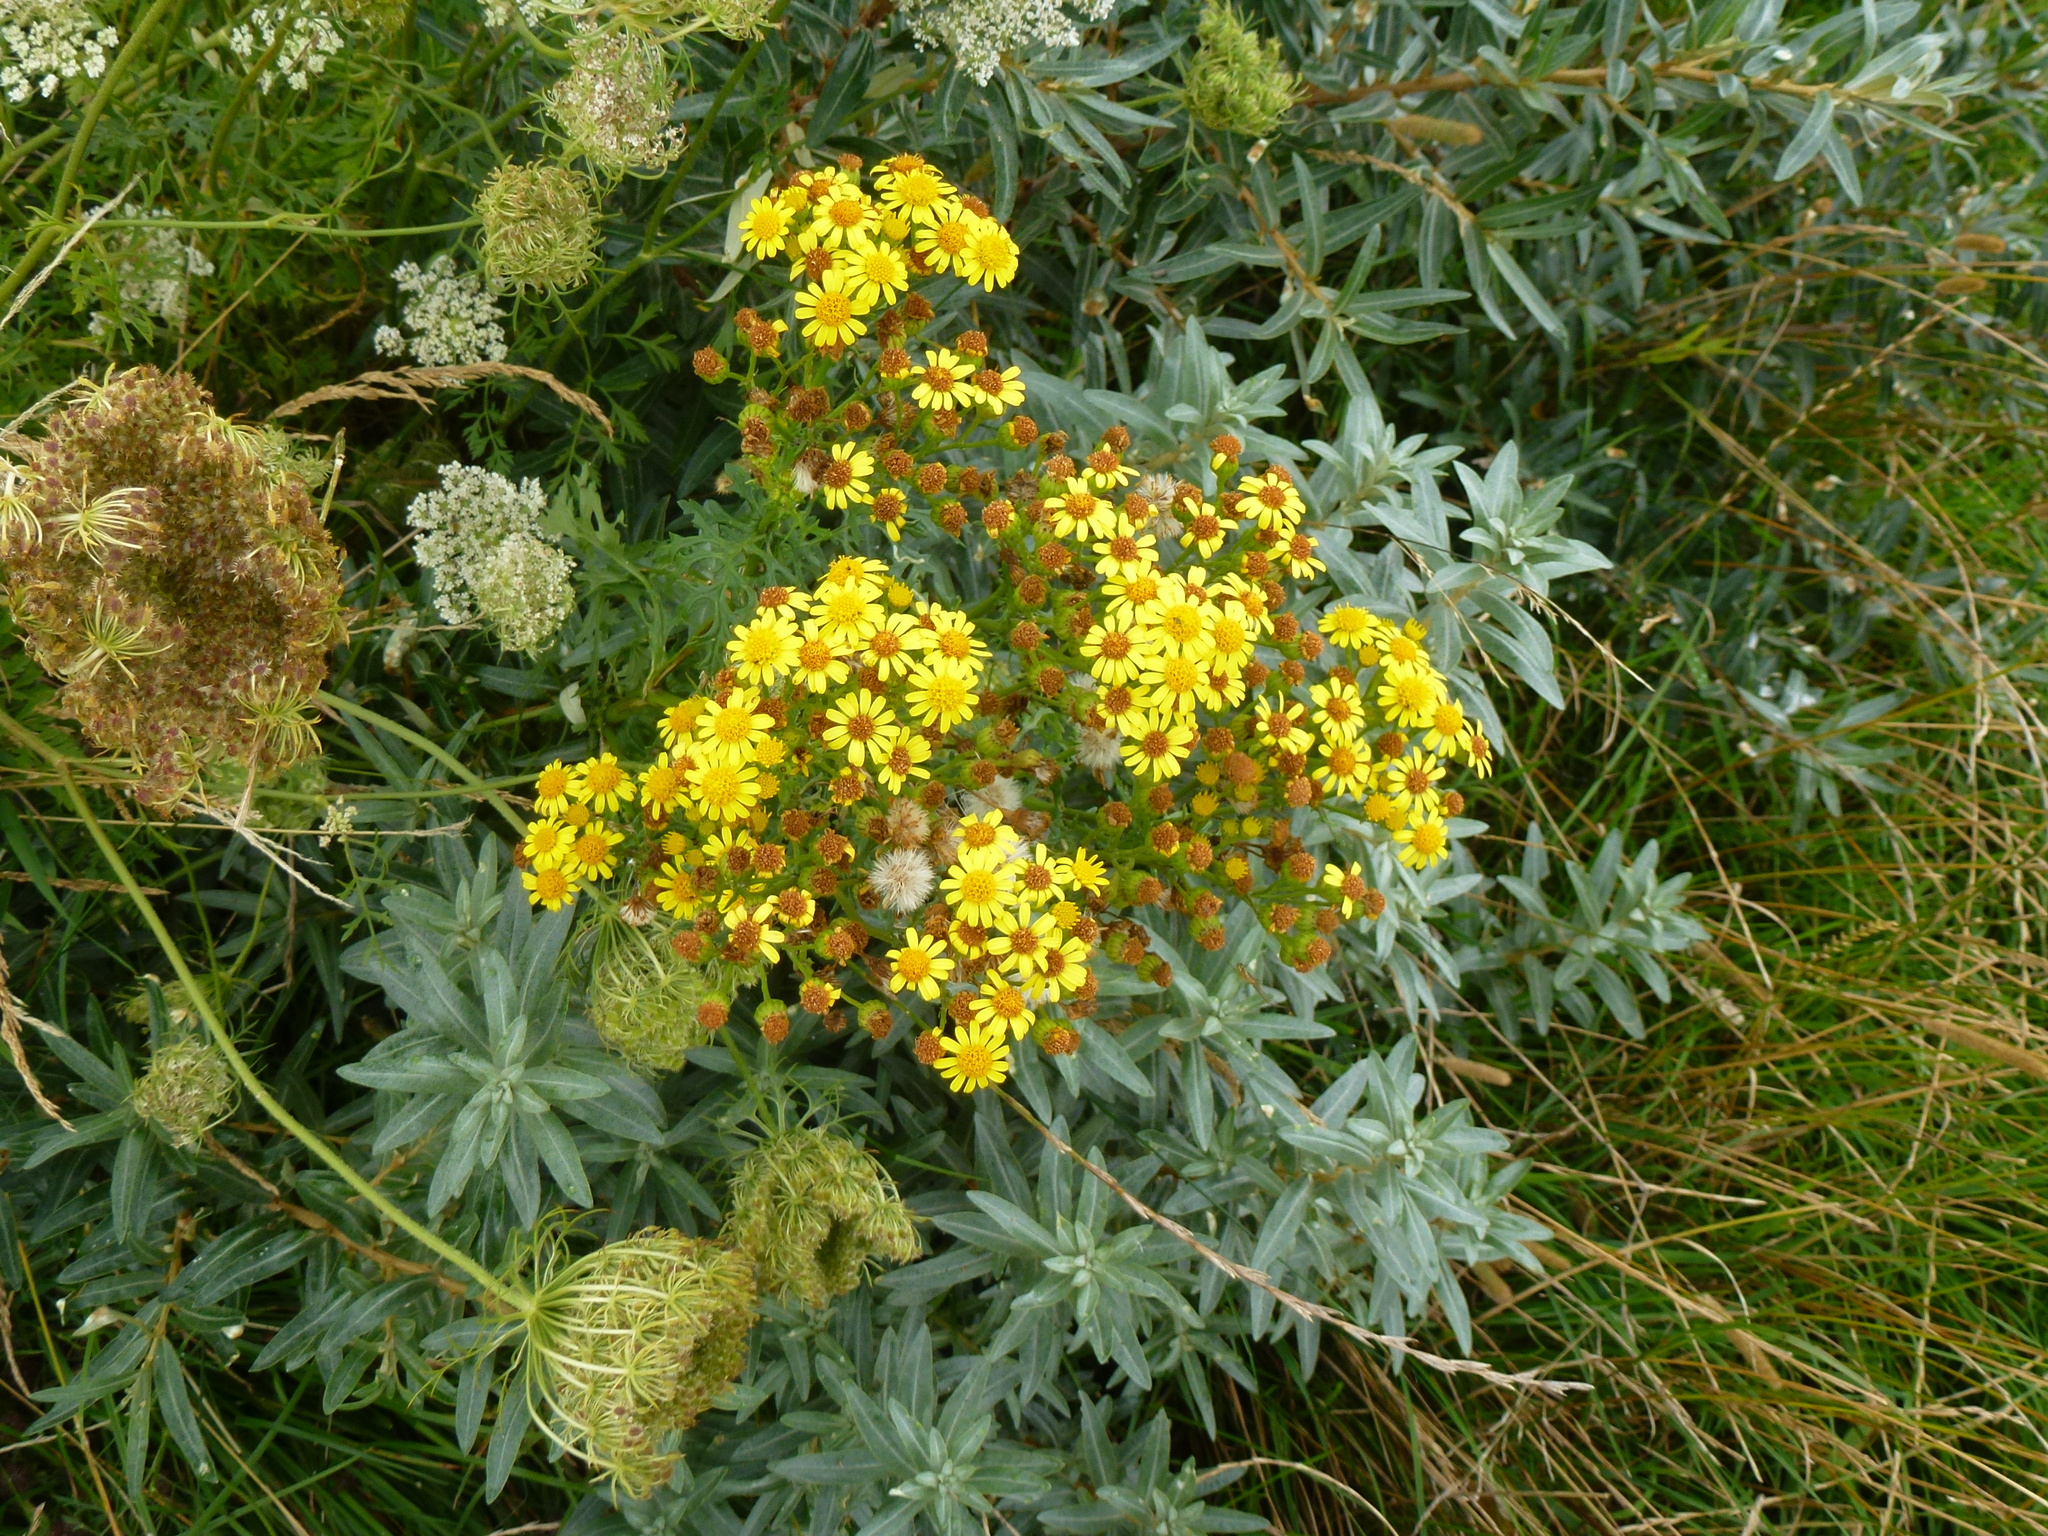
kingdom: Plantae
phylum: Tracheophyta
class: Magnoliopsida
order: Asterales
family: Asteraceae
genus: Jacobaea
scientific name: Jacobaea vulgaris
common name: Stinking willie
